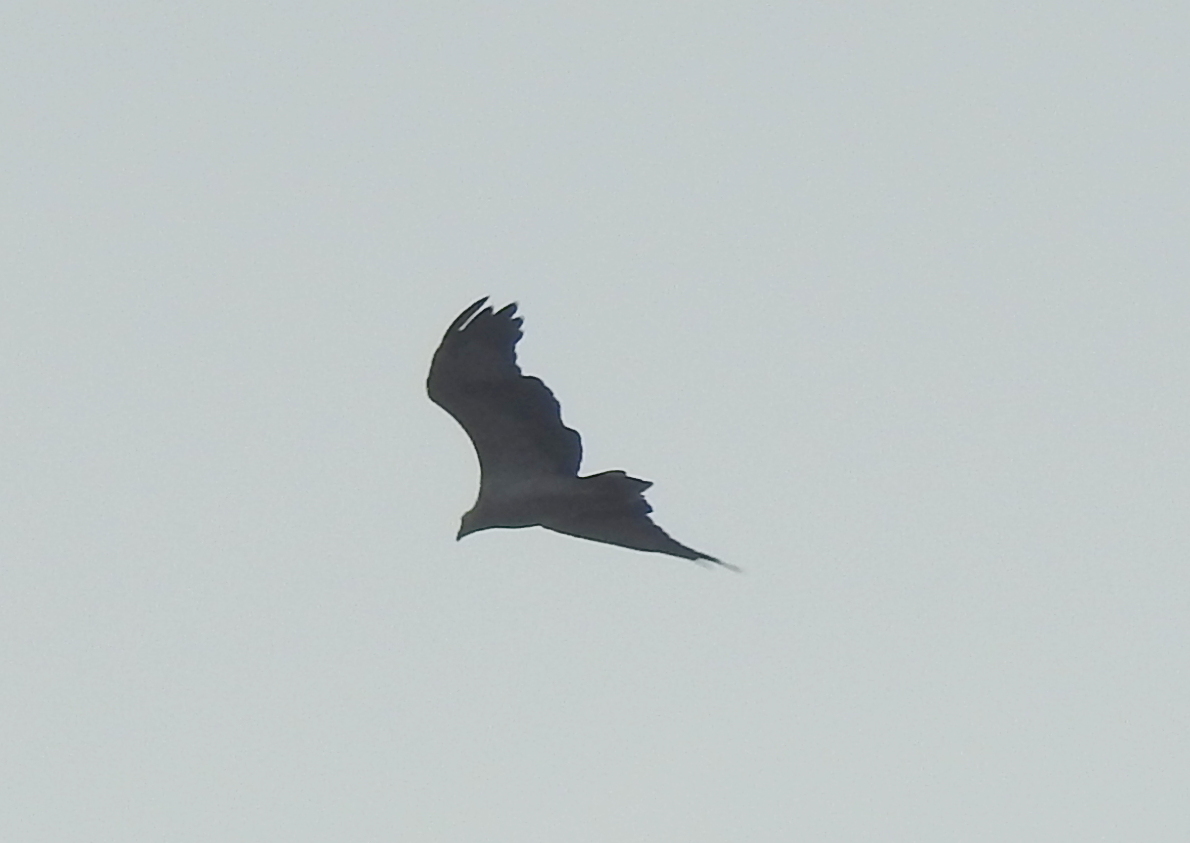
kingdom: Animalia
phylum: Chordata
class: Aves
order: Accipitriformes
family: Accipitridae
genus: Haliaeetus
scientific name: Haliaeetus leucogaster
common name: White-bellied sea eagle
